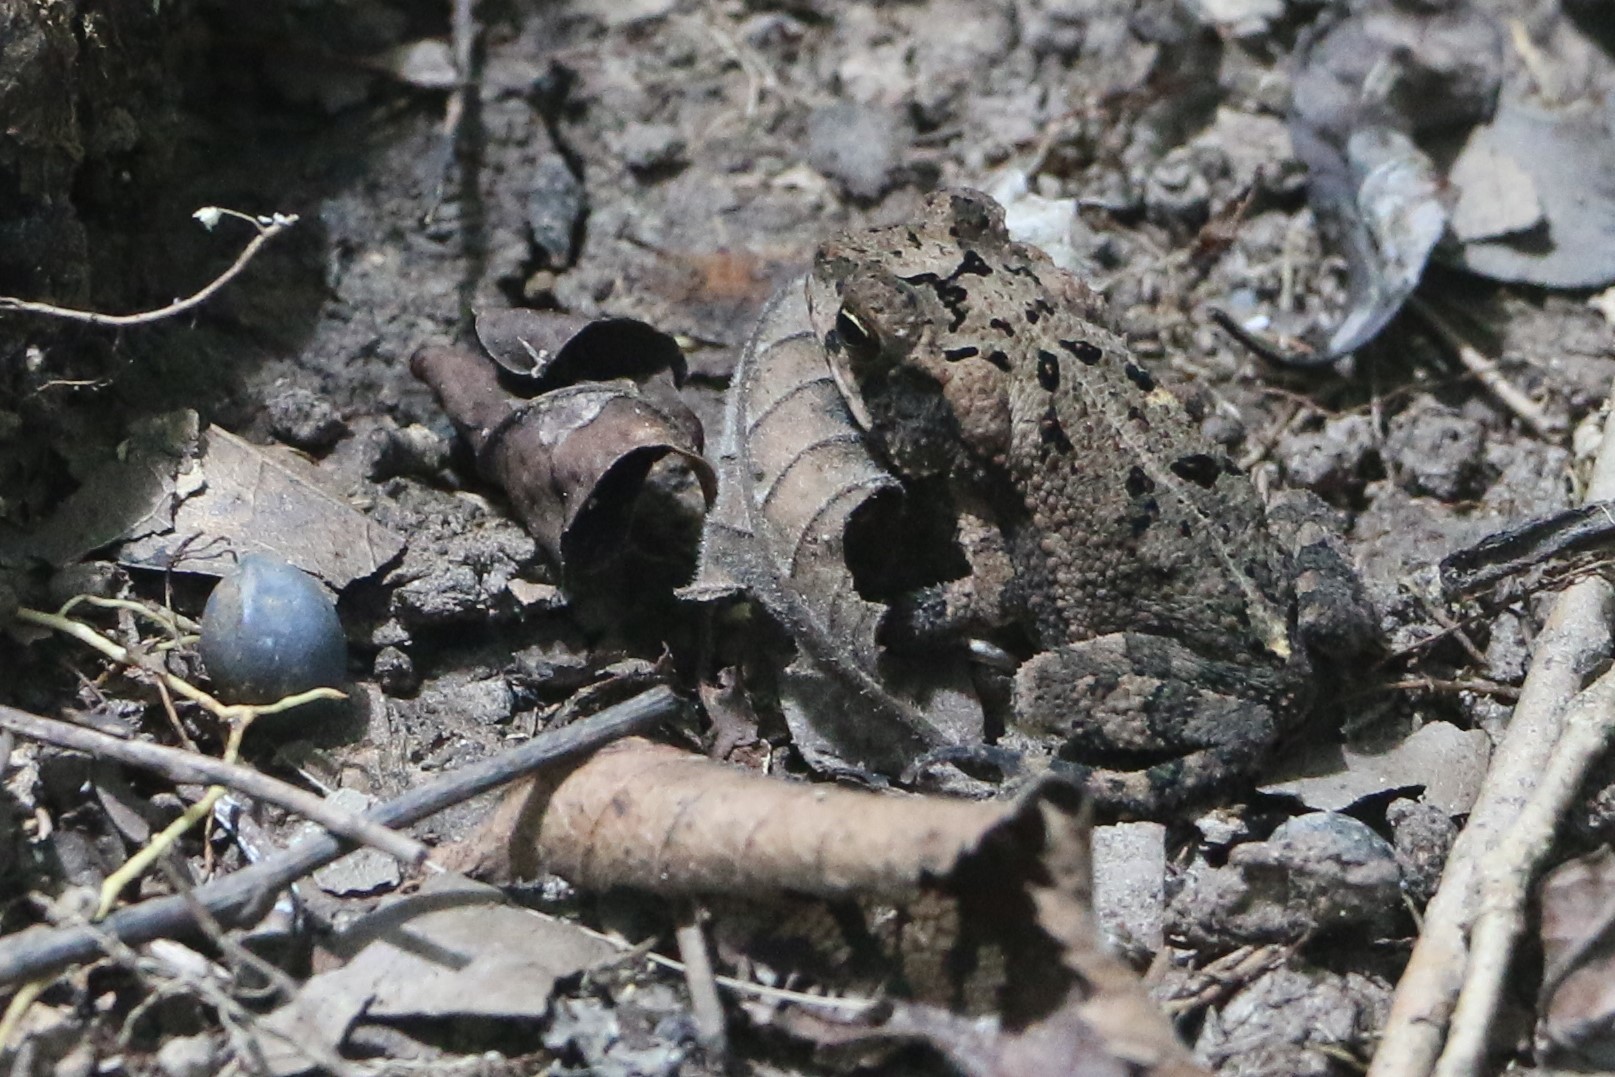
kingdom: Animalia
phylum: Chordata
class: Amphibia
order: Anura
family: Bufonidae
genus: Incilius
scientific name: Incilius nebulifer
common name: Gulf coast toad
